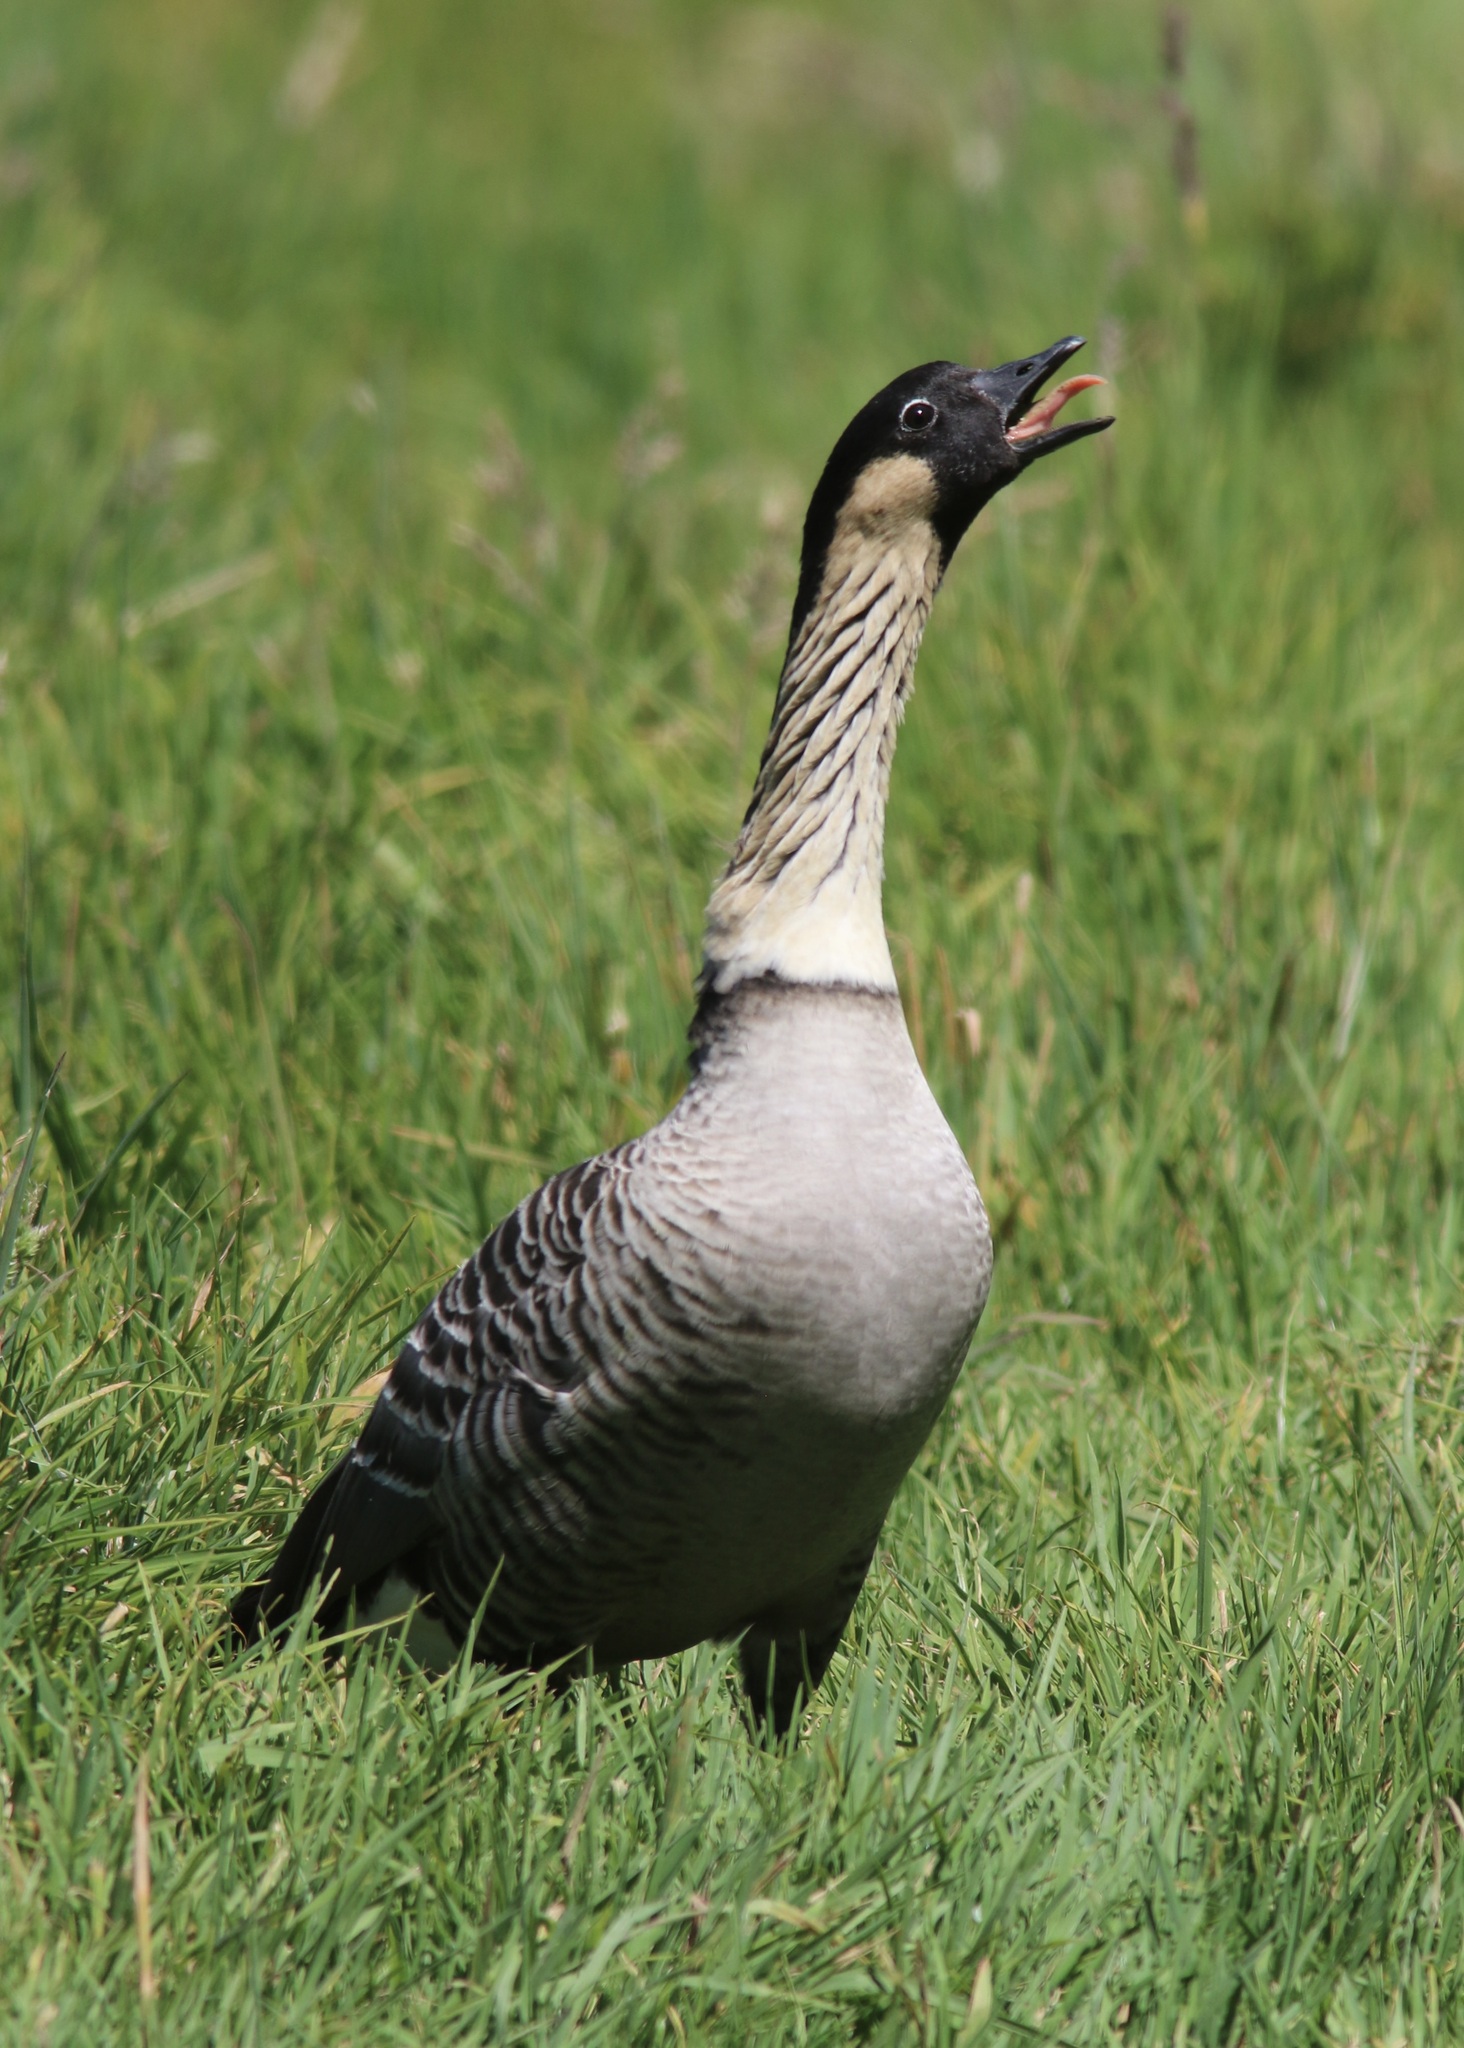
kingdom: Animalia
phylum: Chordata
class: Aves
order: Anseriformes
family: Anatidae
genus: Branta
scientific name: Branta sandvicensis
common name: Nene
